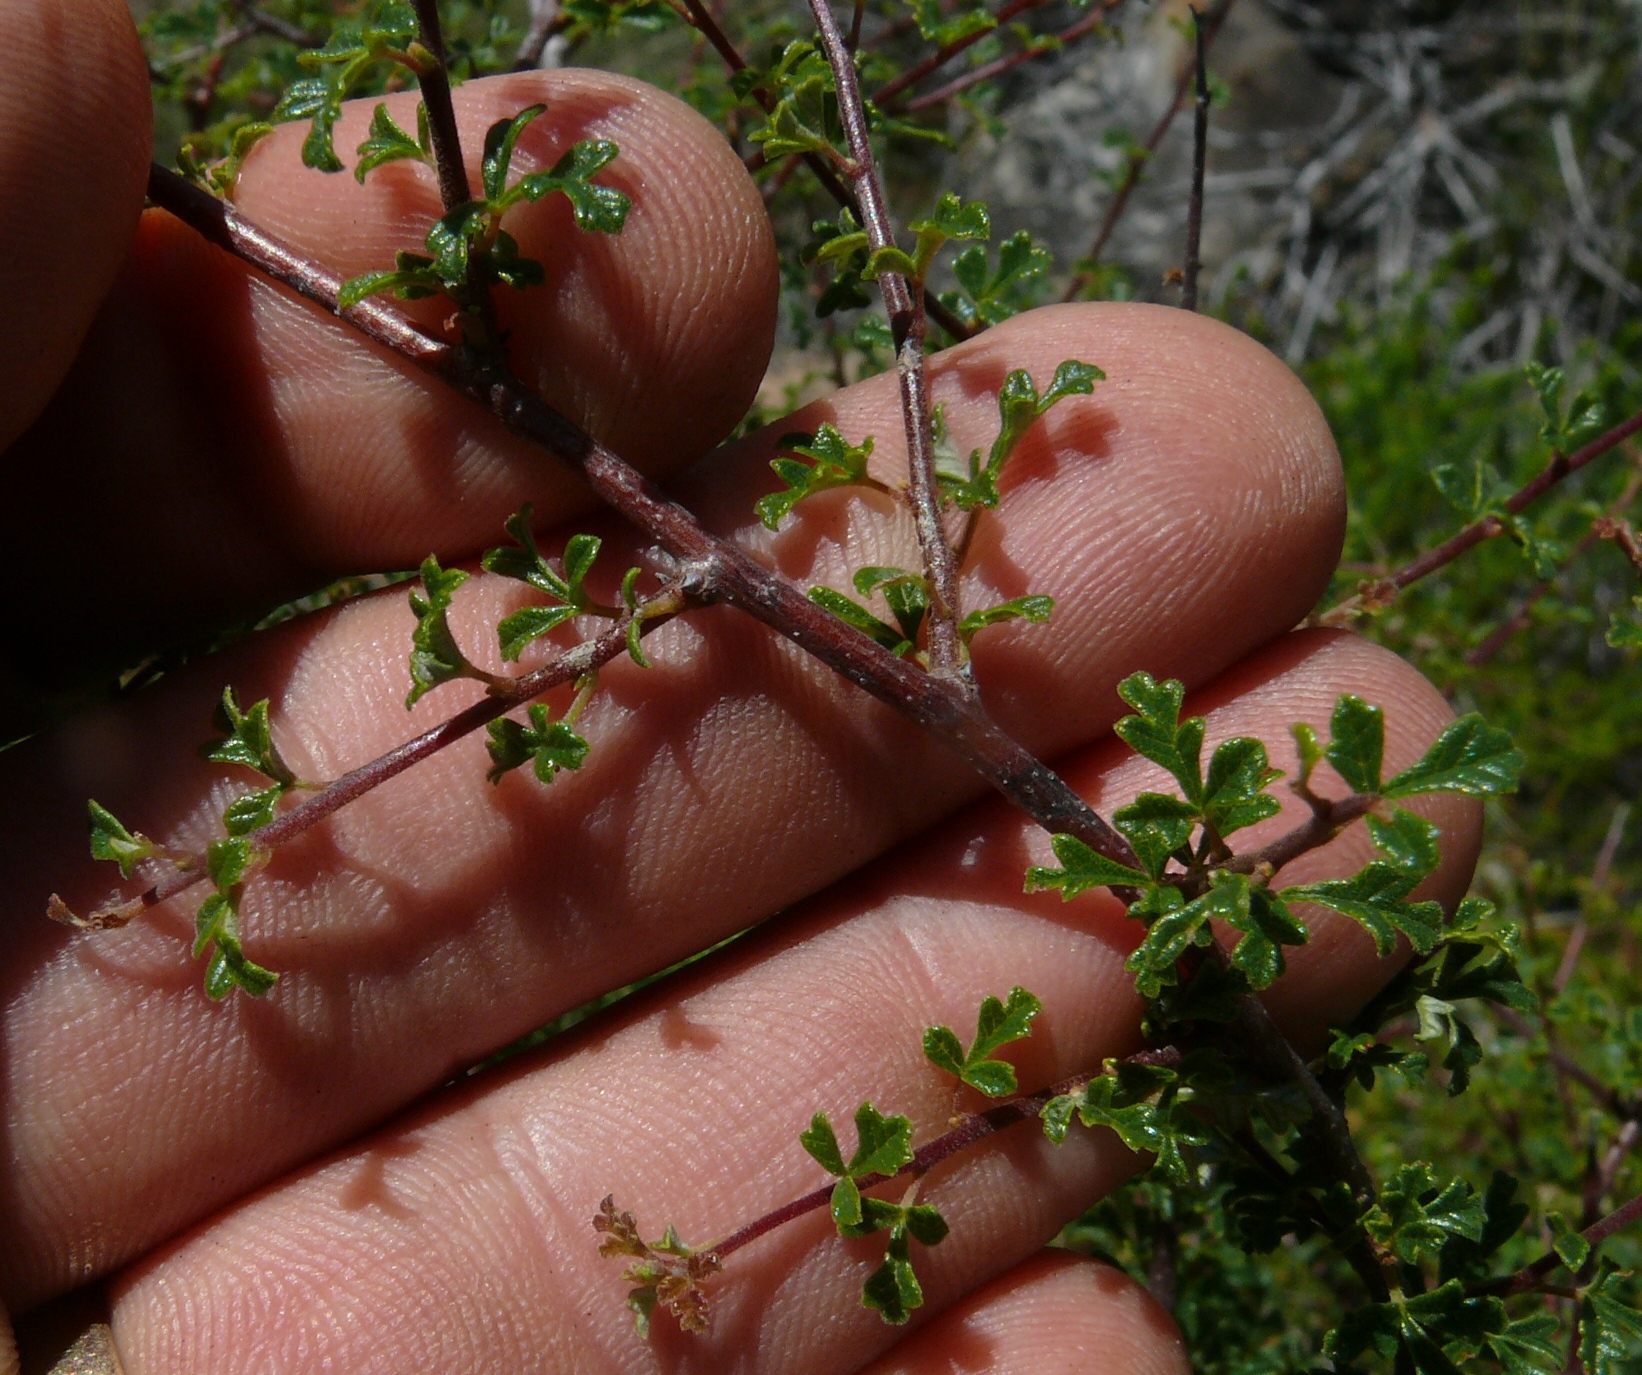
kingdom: Plantae
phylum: Tracheophyta
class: Magnoliopsida
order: Sapindales
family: Anacardiaceae
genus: Searsia
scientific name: Searsia incisa
